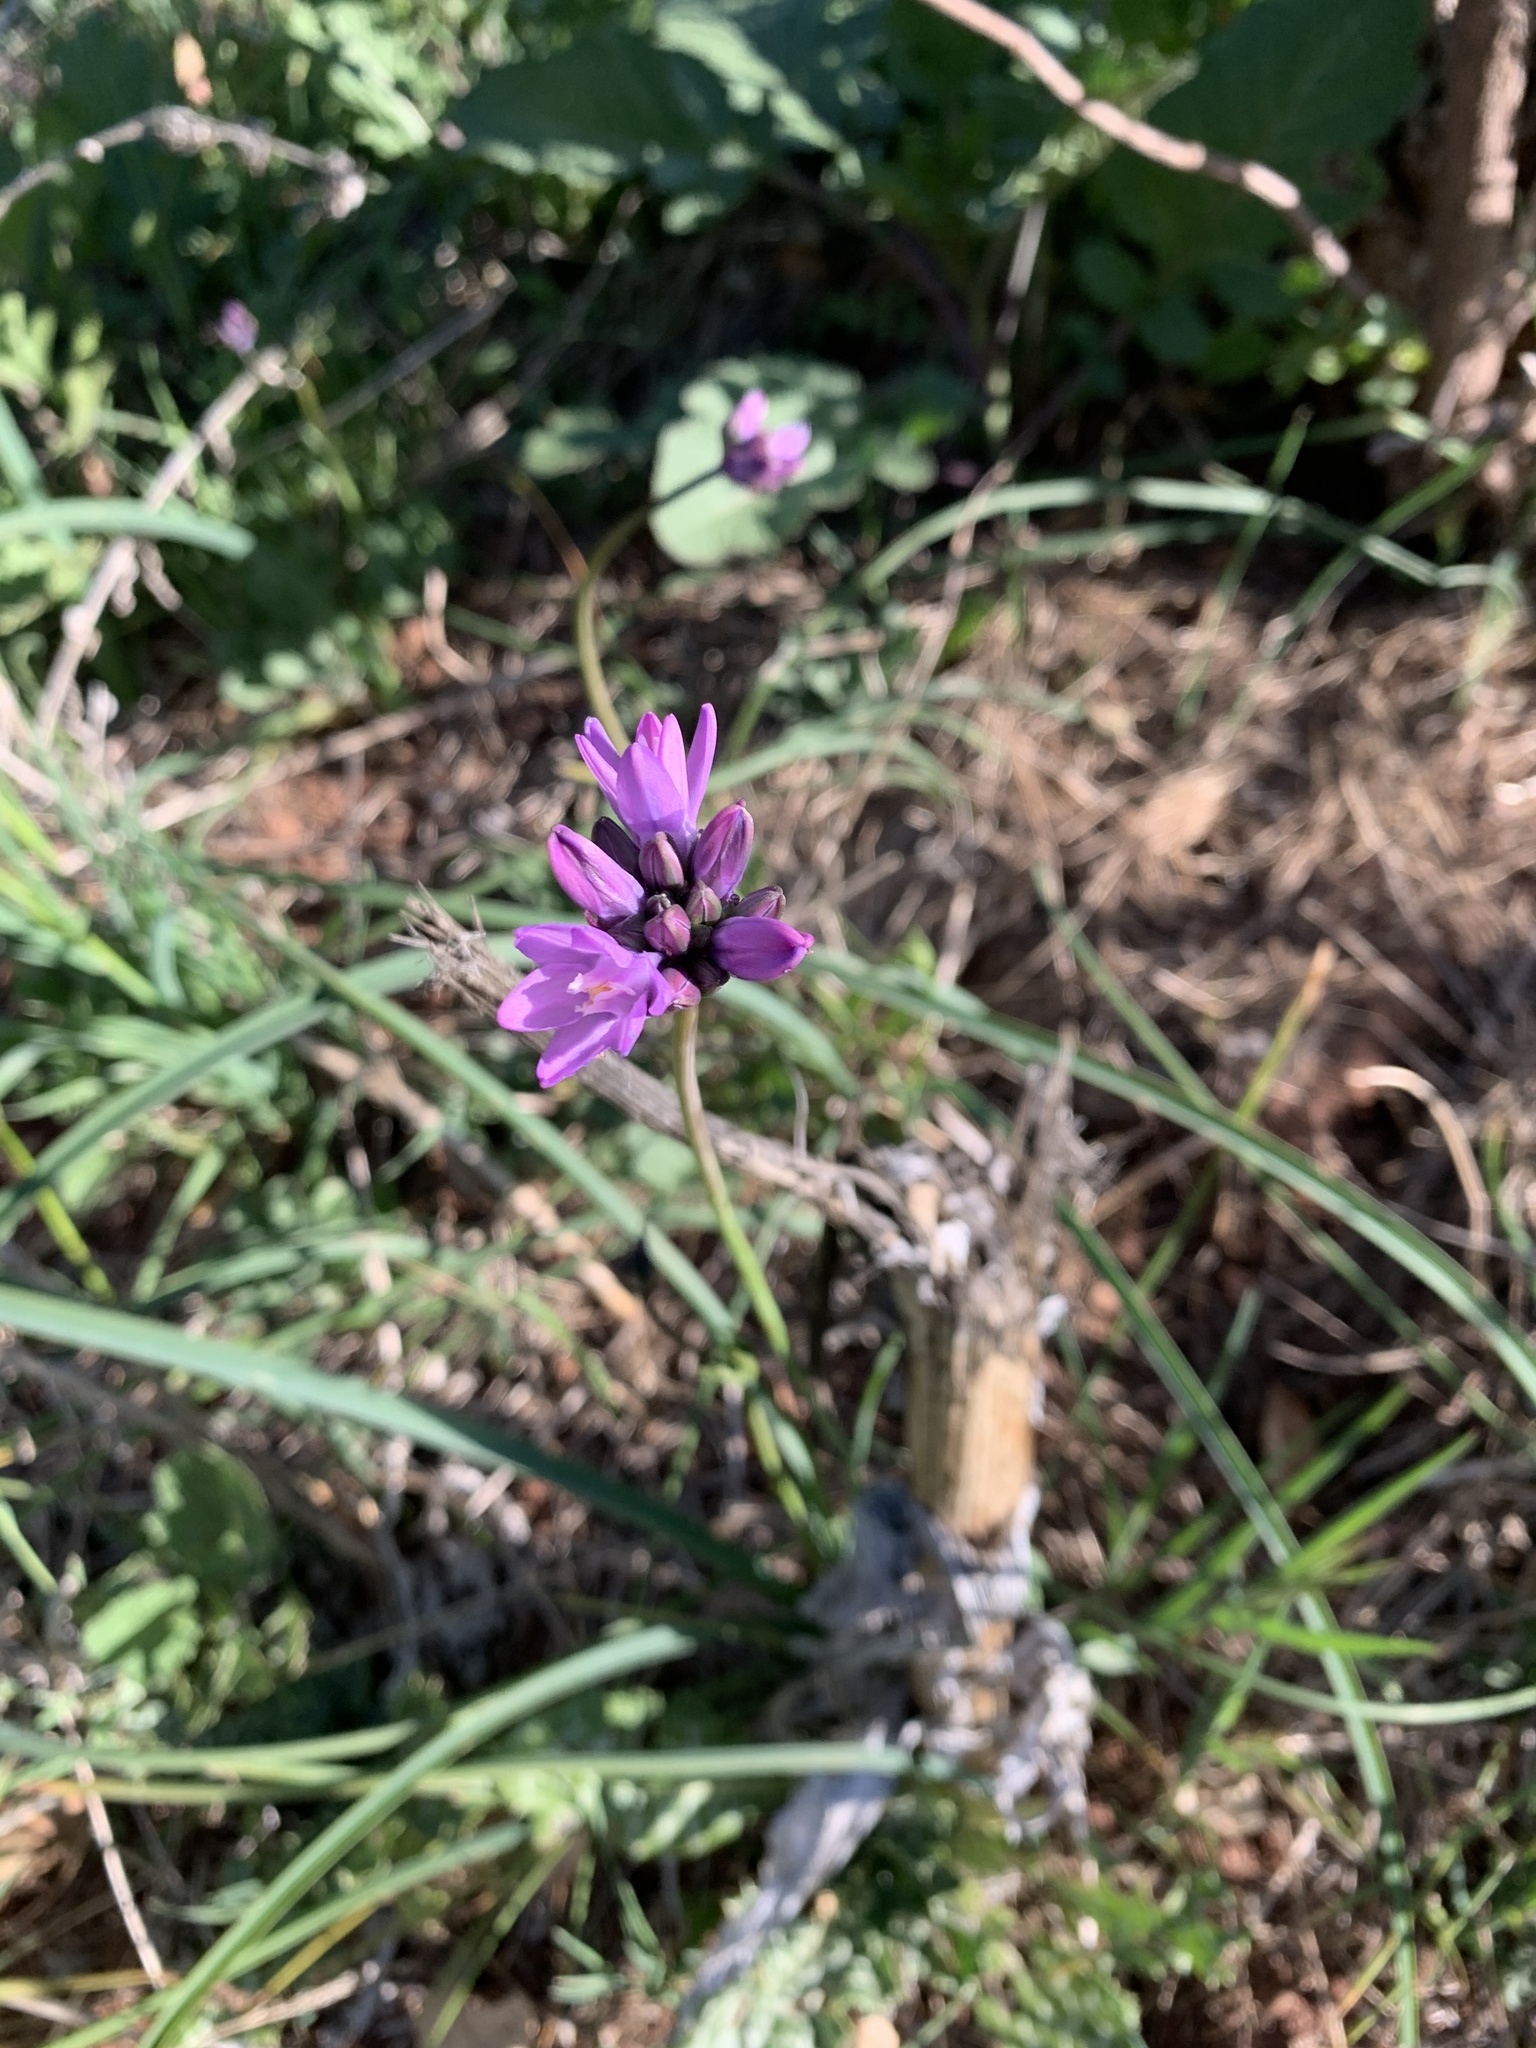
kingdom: Plantae
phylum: Tracheophyta
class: Liliopsida
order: Asparagales
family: Asparagaceae
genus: Dipterostemon
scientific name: Dipterostemon capitatus
